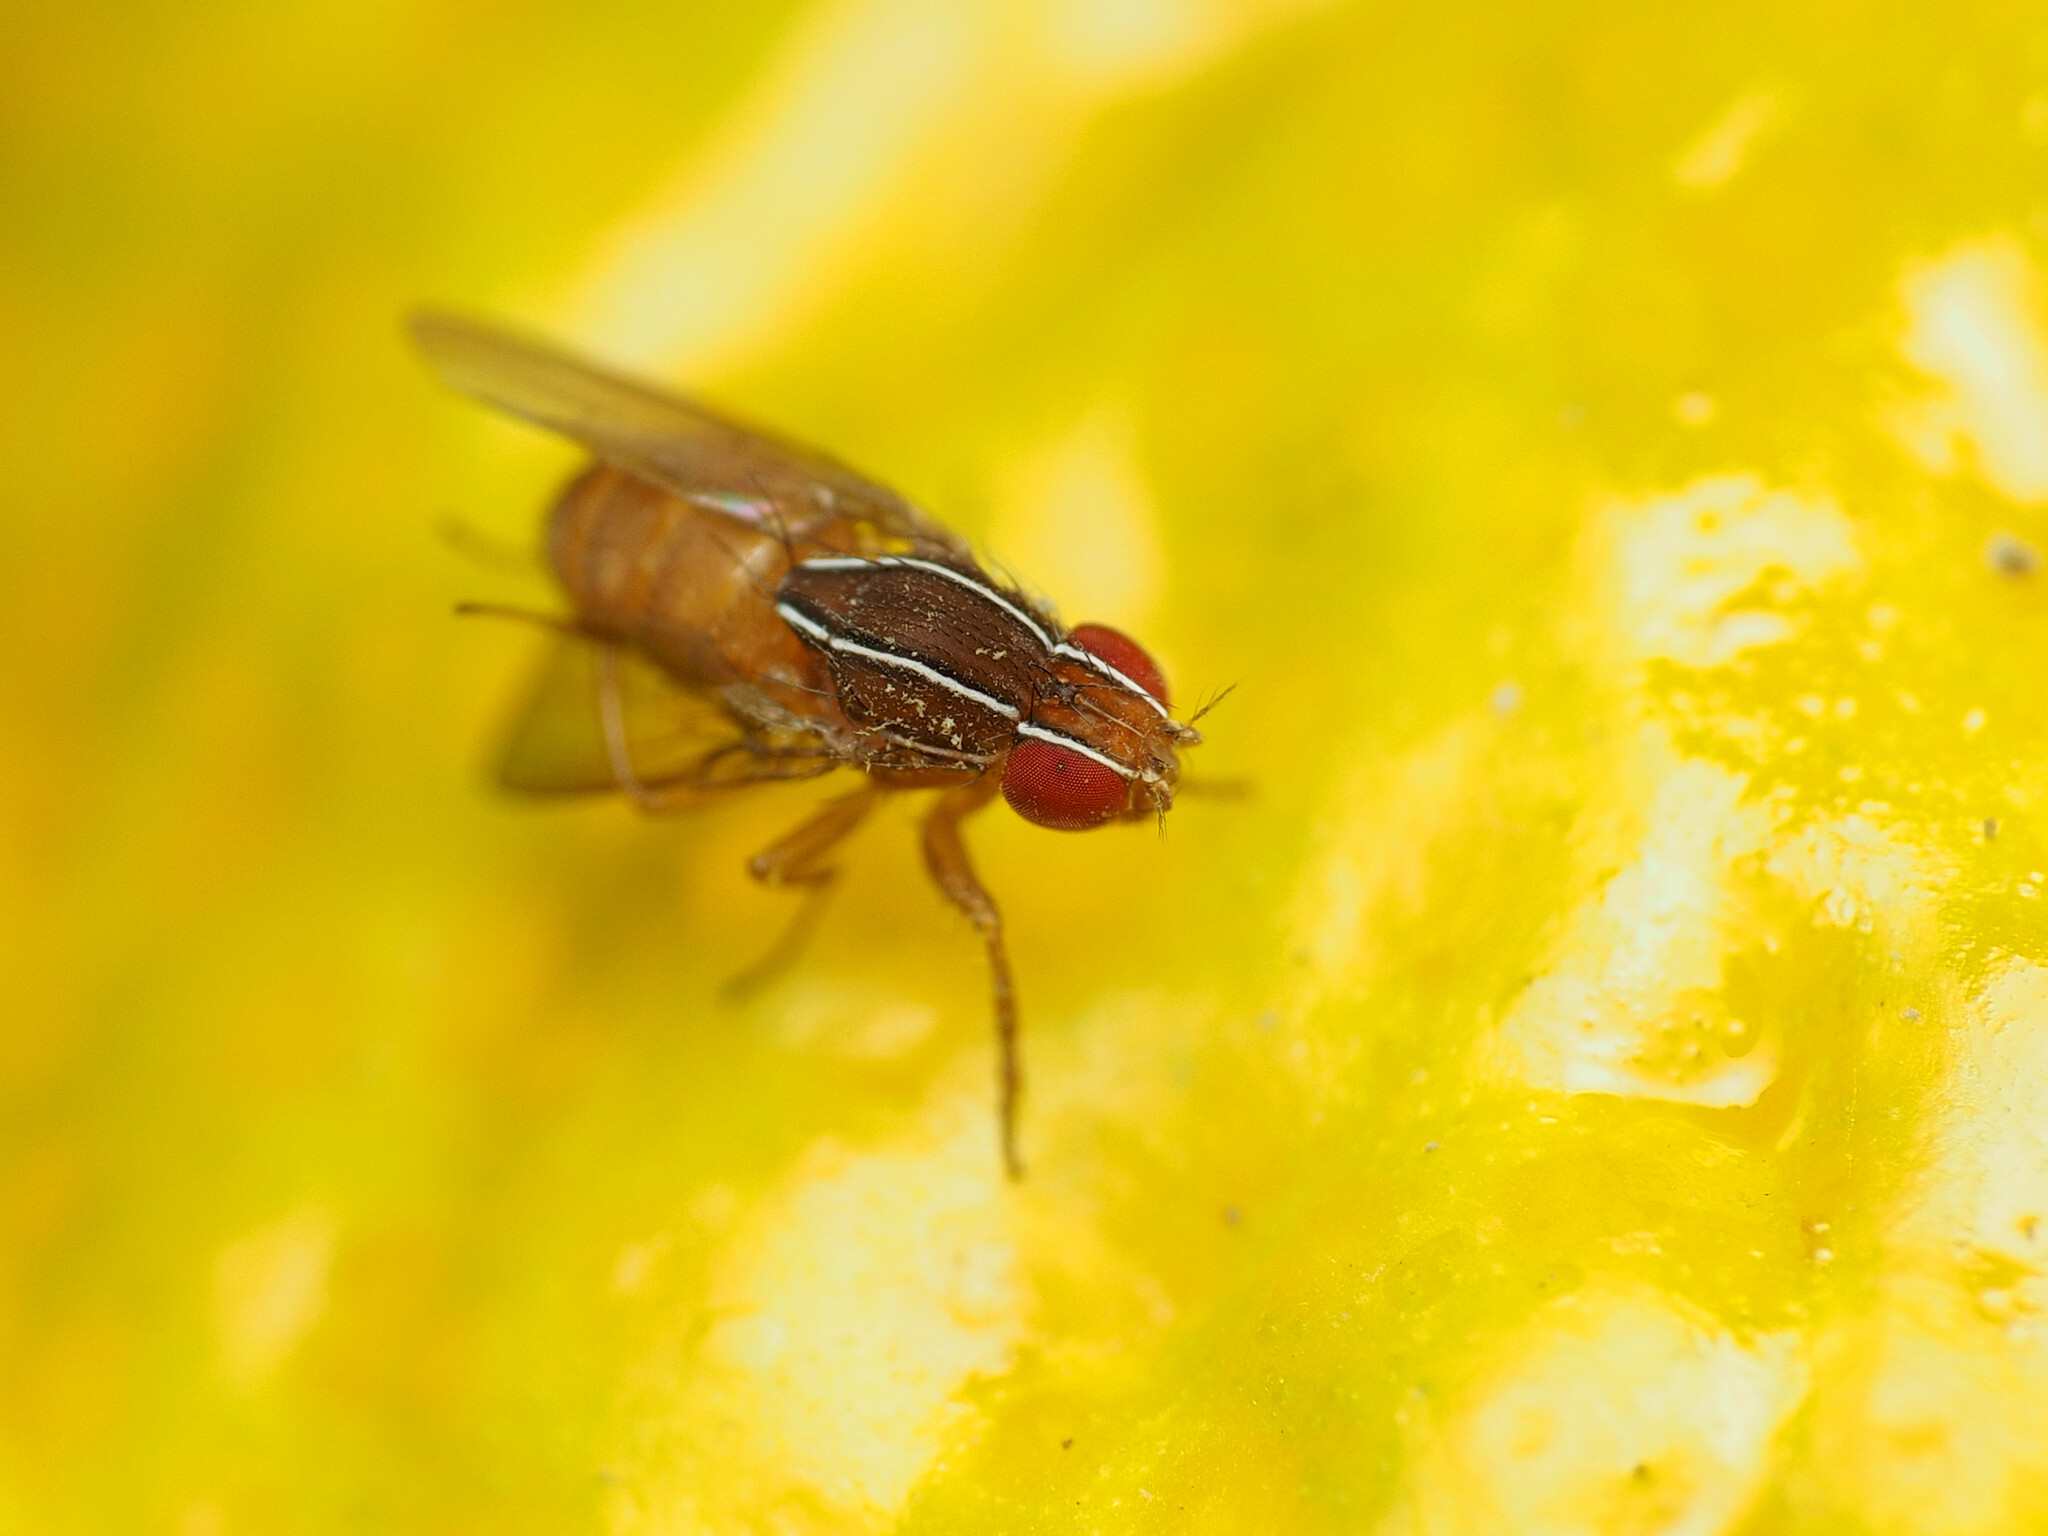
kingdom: Animalia
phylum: Arthropoda
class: Insecta
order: Diptera
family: Drosophilidae
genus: Zaprionus
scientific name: Zaprionus indianus
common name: African fig fly
